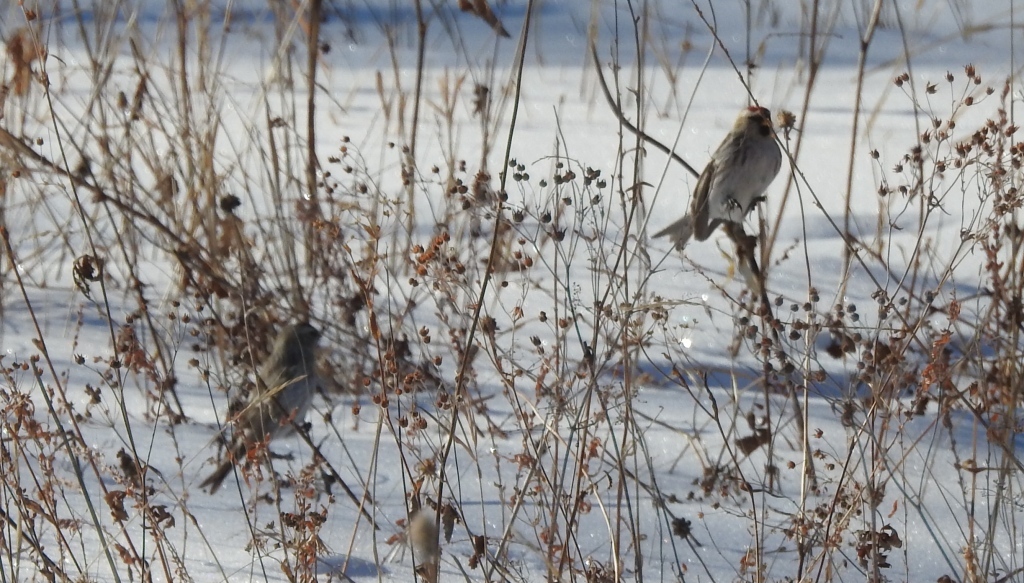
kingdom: Animalia
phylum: Chordata
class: Aves
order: Passeriformes
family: Fringillidae
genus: Acanthis
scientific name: Acanthis hornemanni
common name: Arctic redpoll
